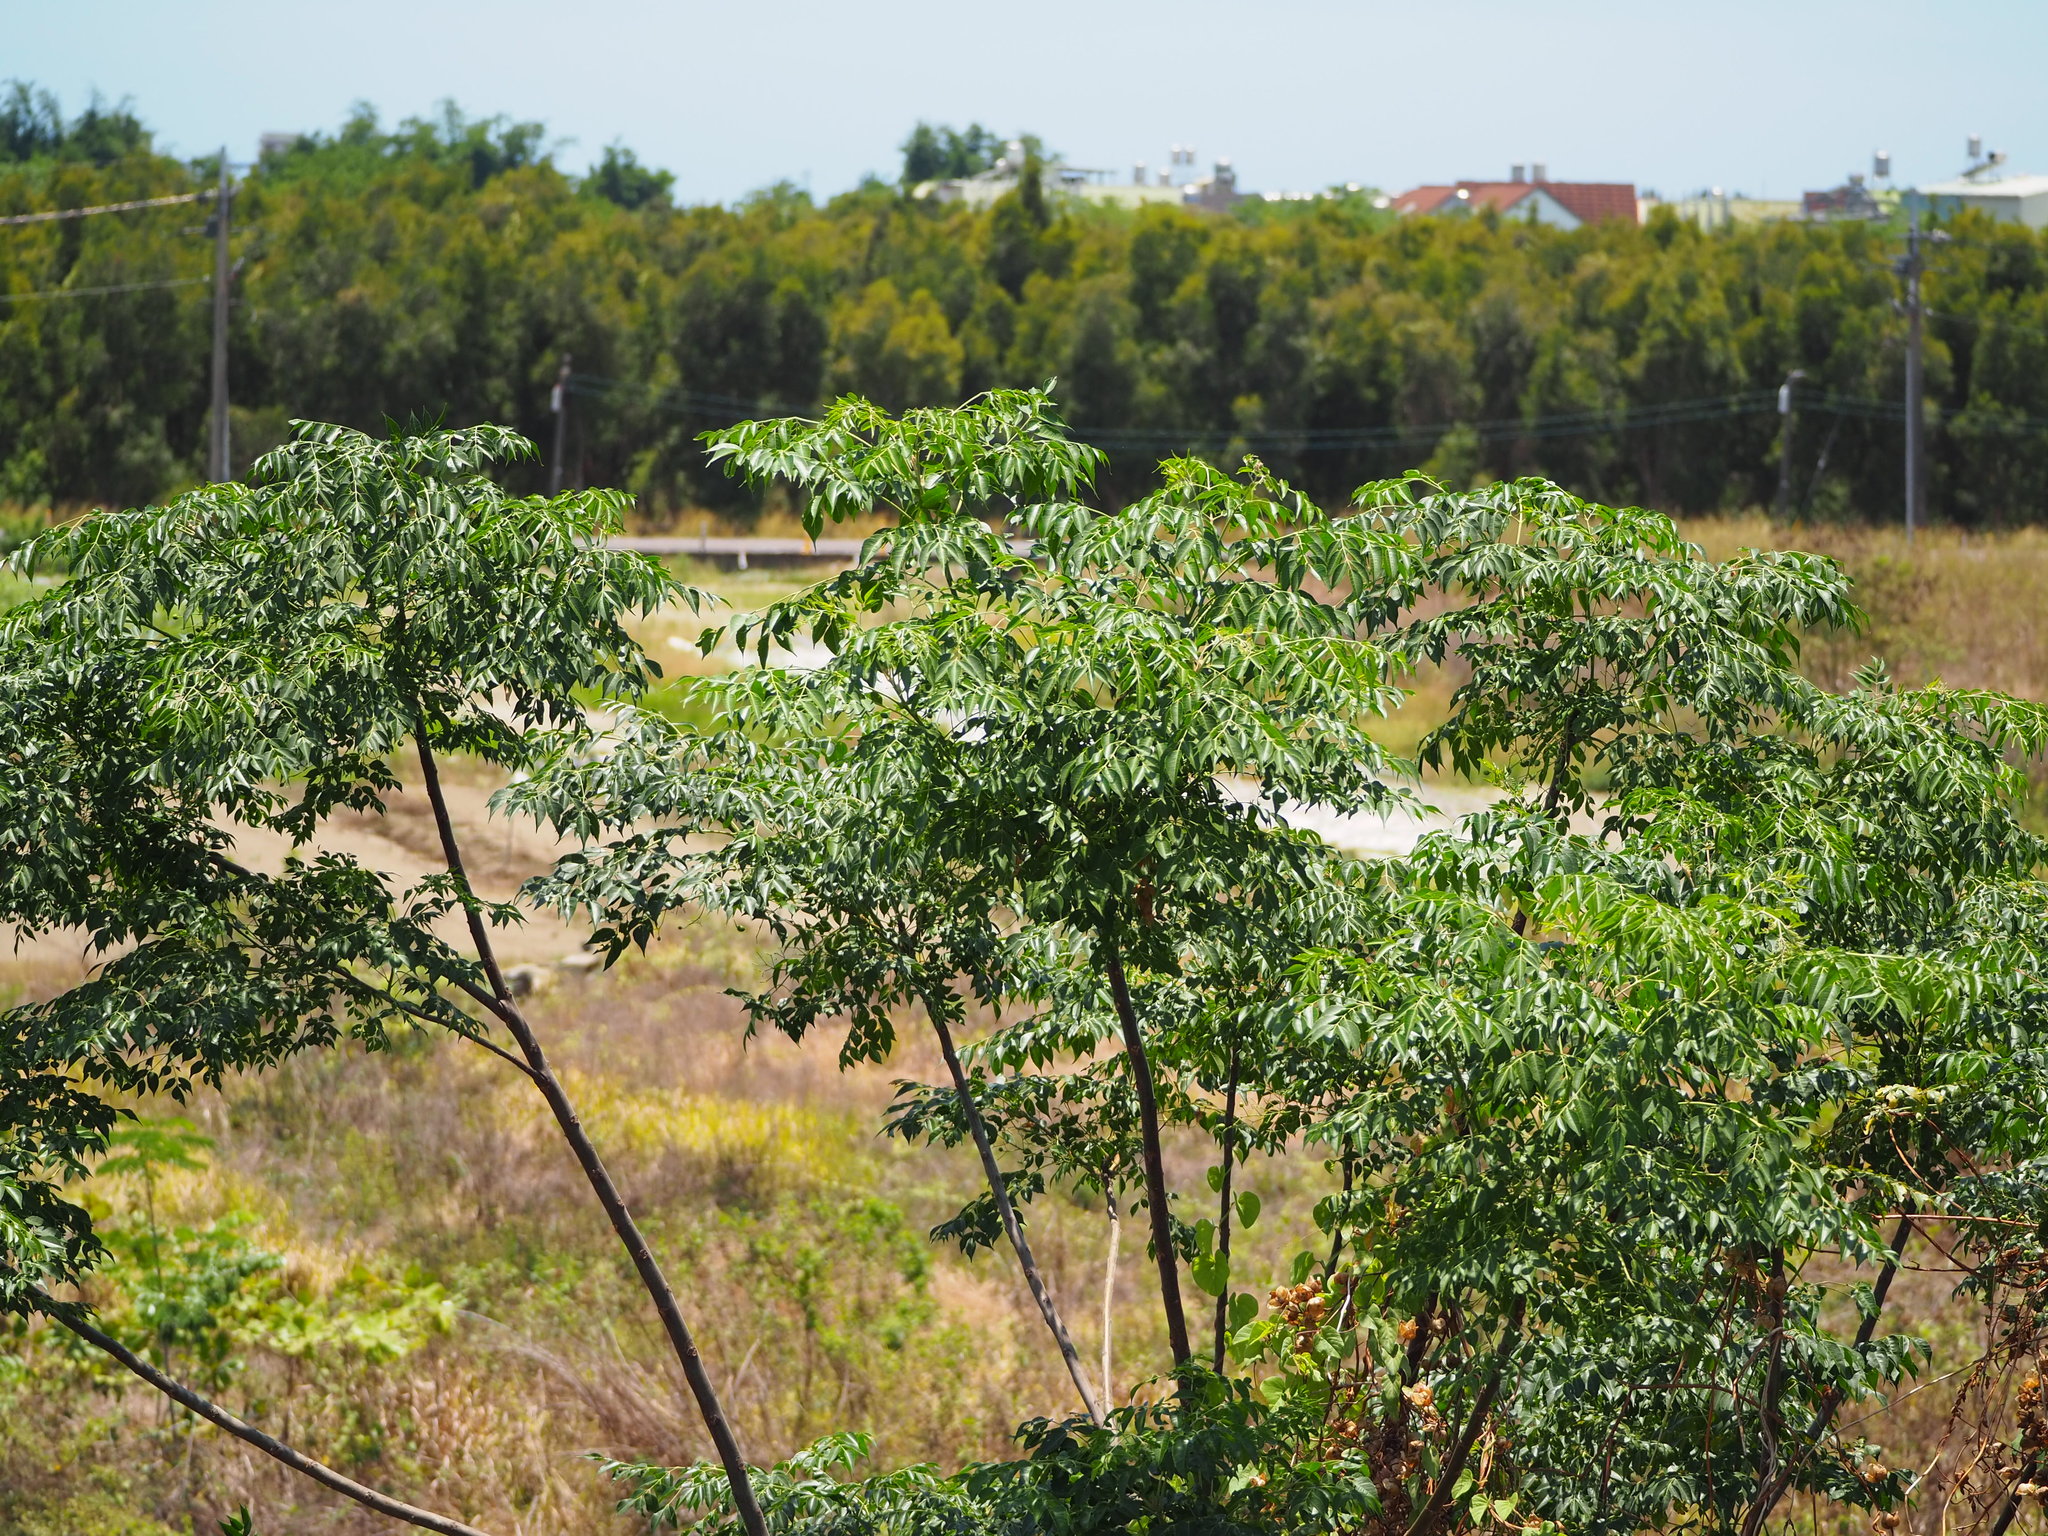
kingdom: Plantae
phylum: Tracheophyta
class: Magnoliopsida
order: Sapindales
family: Meliaceae
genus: Melia
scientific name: Melia azedarach
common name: Chinaberrytree
